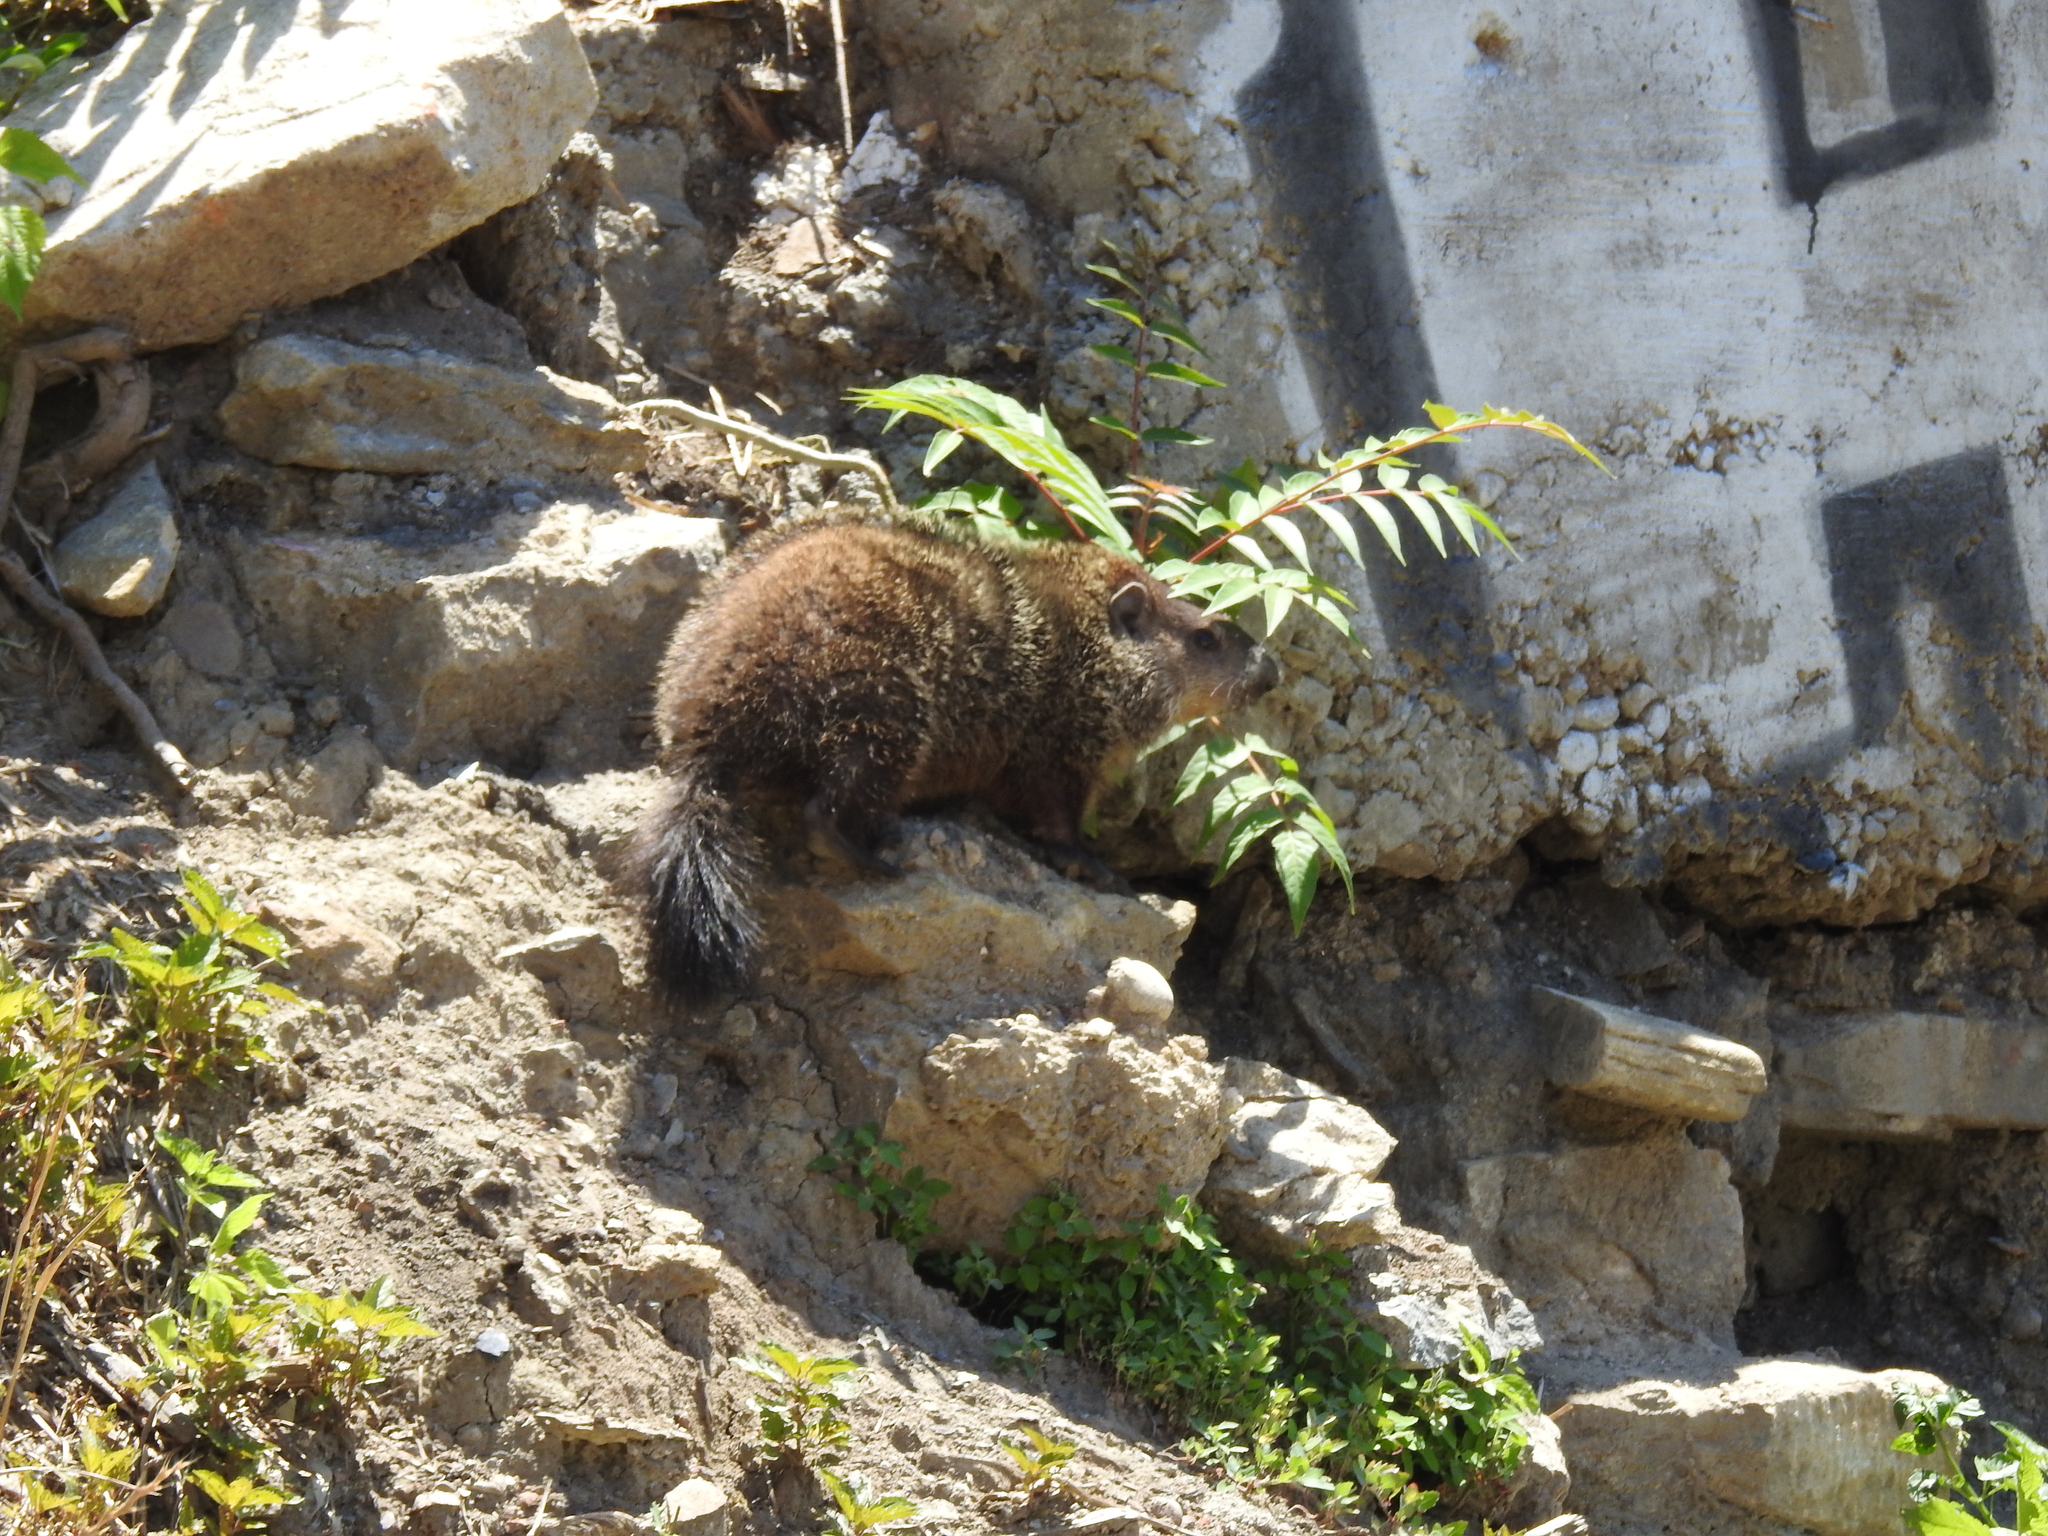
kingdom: Animalia
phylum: Chordata
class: Mammalia
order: Rodentia
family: Sciuridae
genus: Marmota
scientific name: Marmota monax
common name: Groundhog
